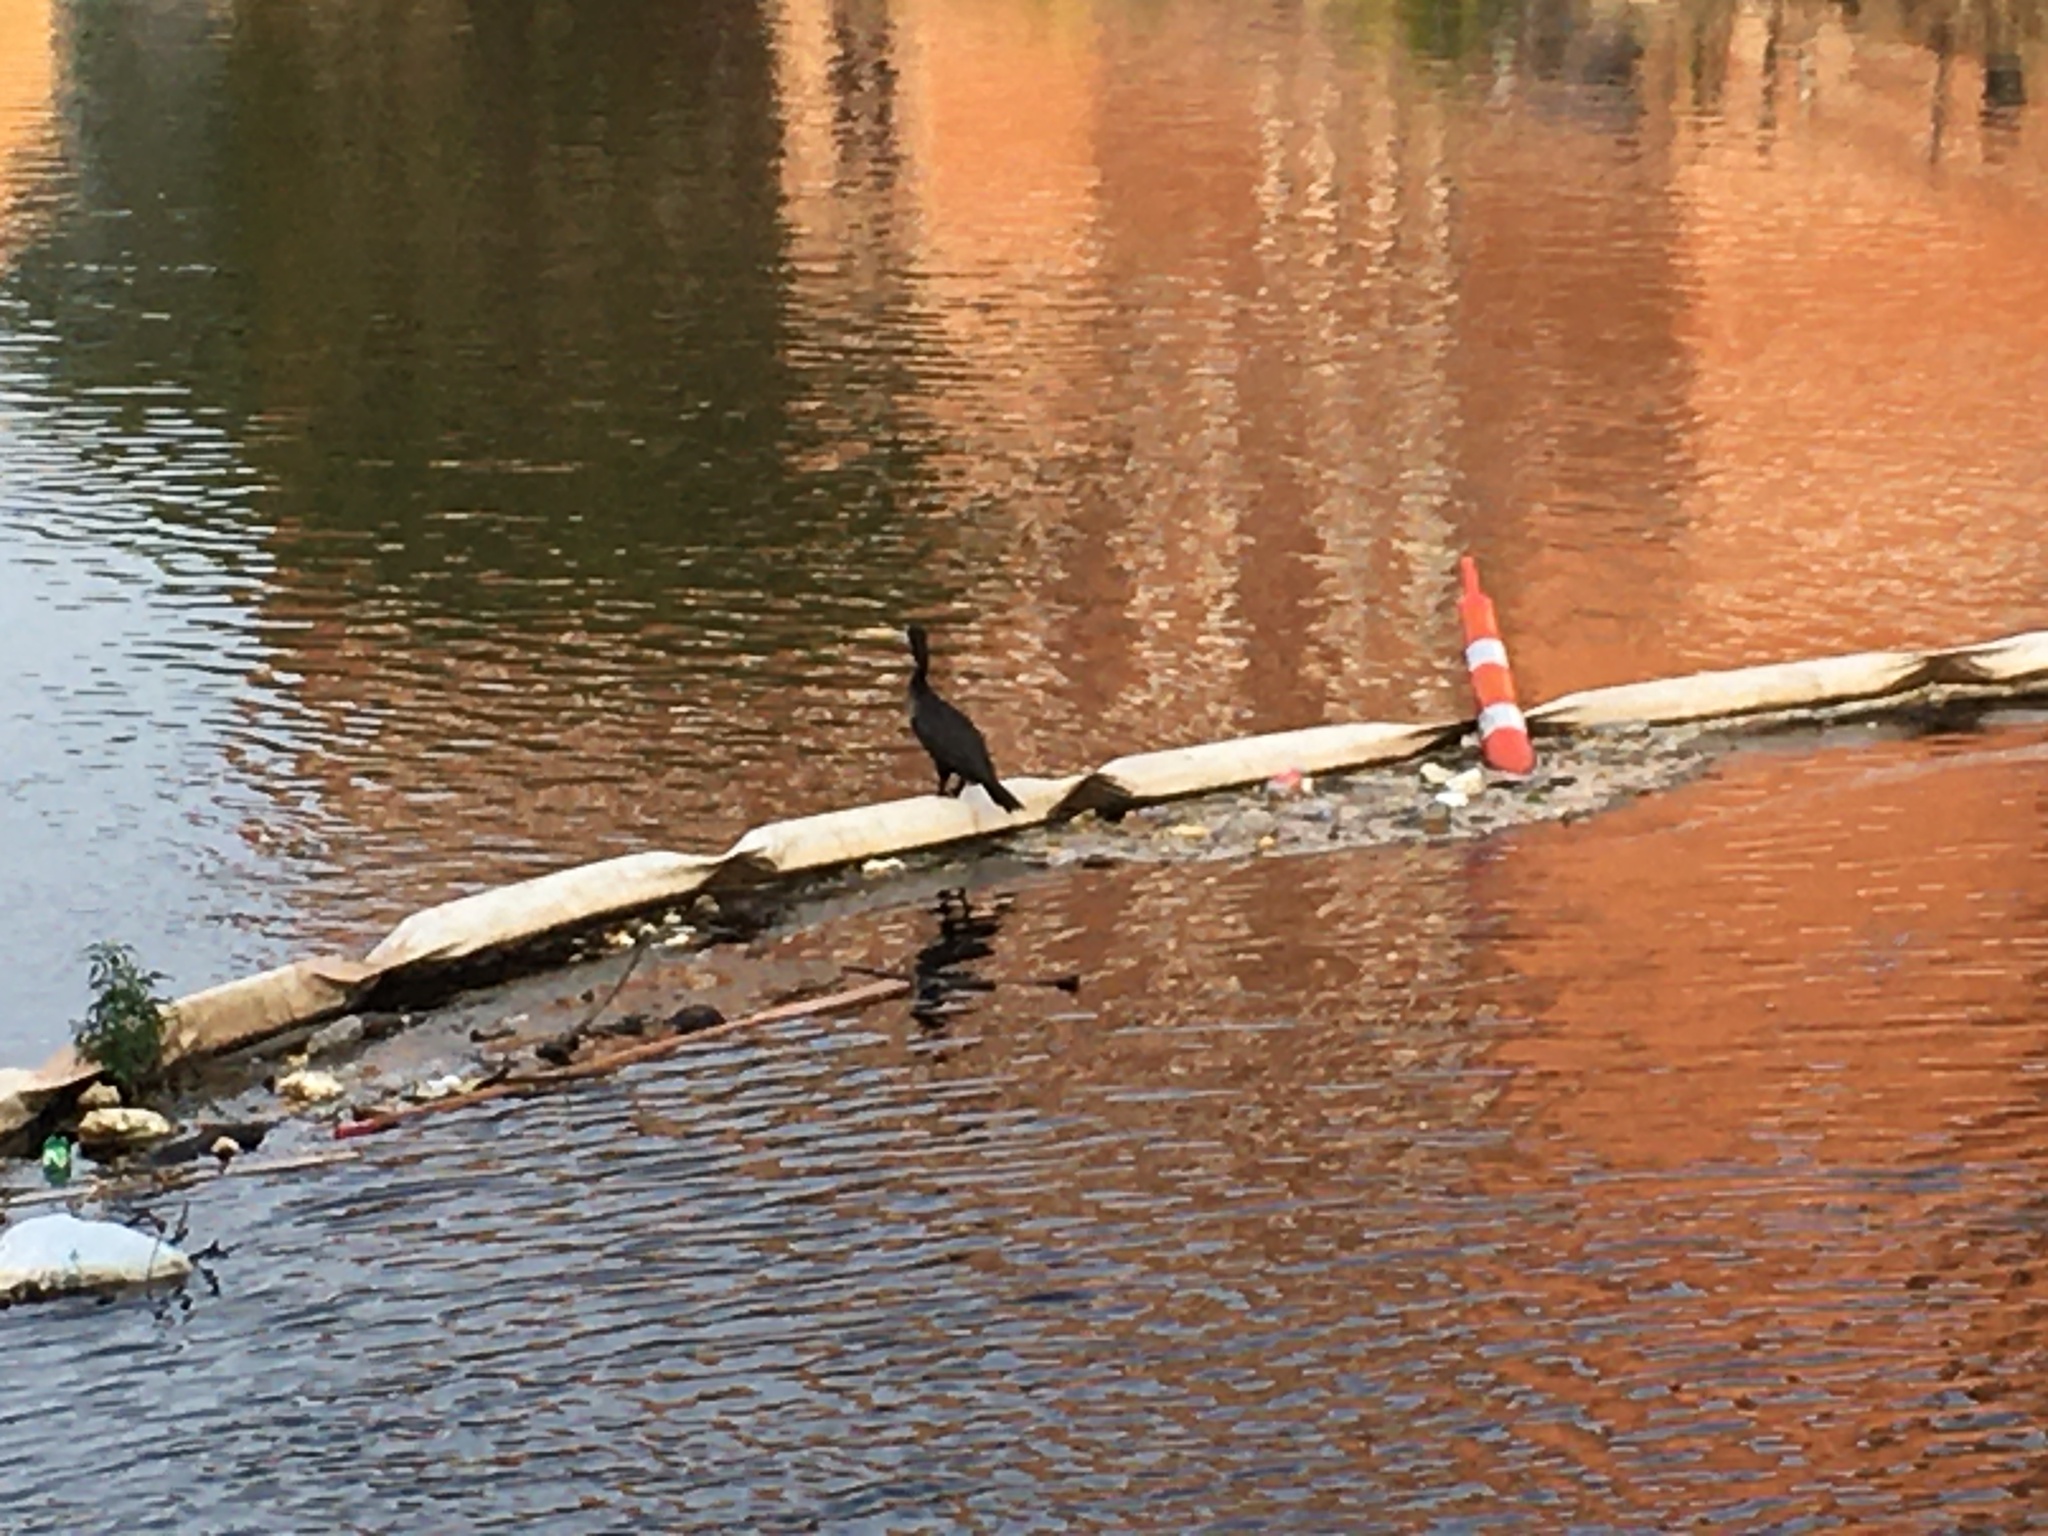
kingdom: Animalia
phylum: Chordata
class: Aves
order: Suliformes
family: Phalacrocoracidae
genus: Phalacrocorax
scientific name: Phalacrocorax auritus
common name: Double-crested cormorant
